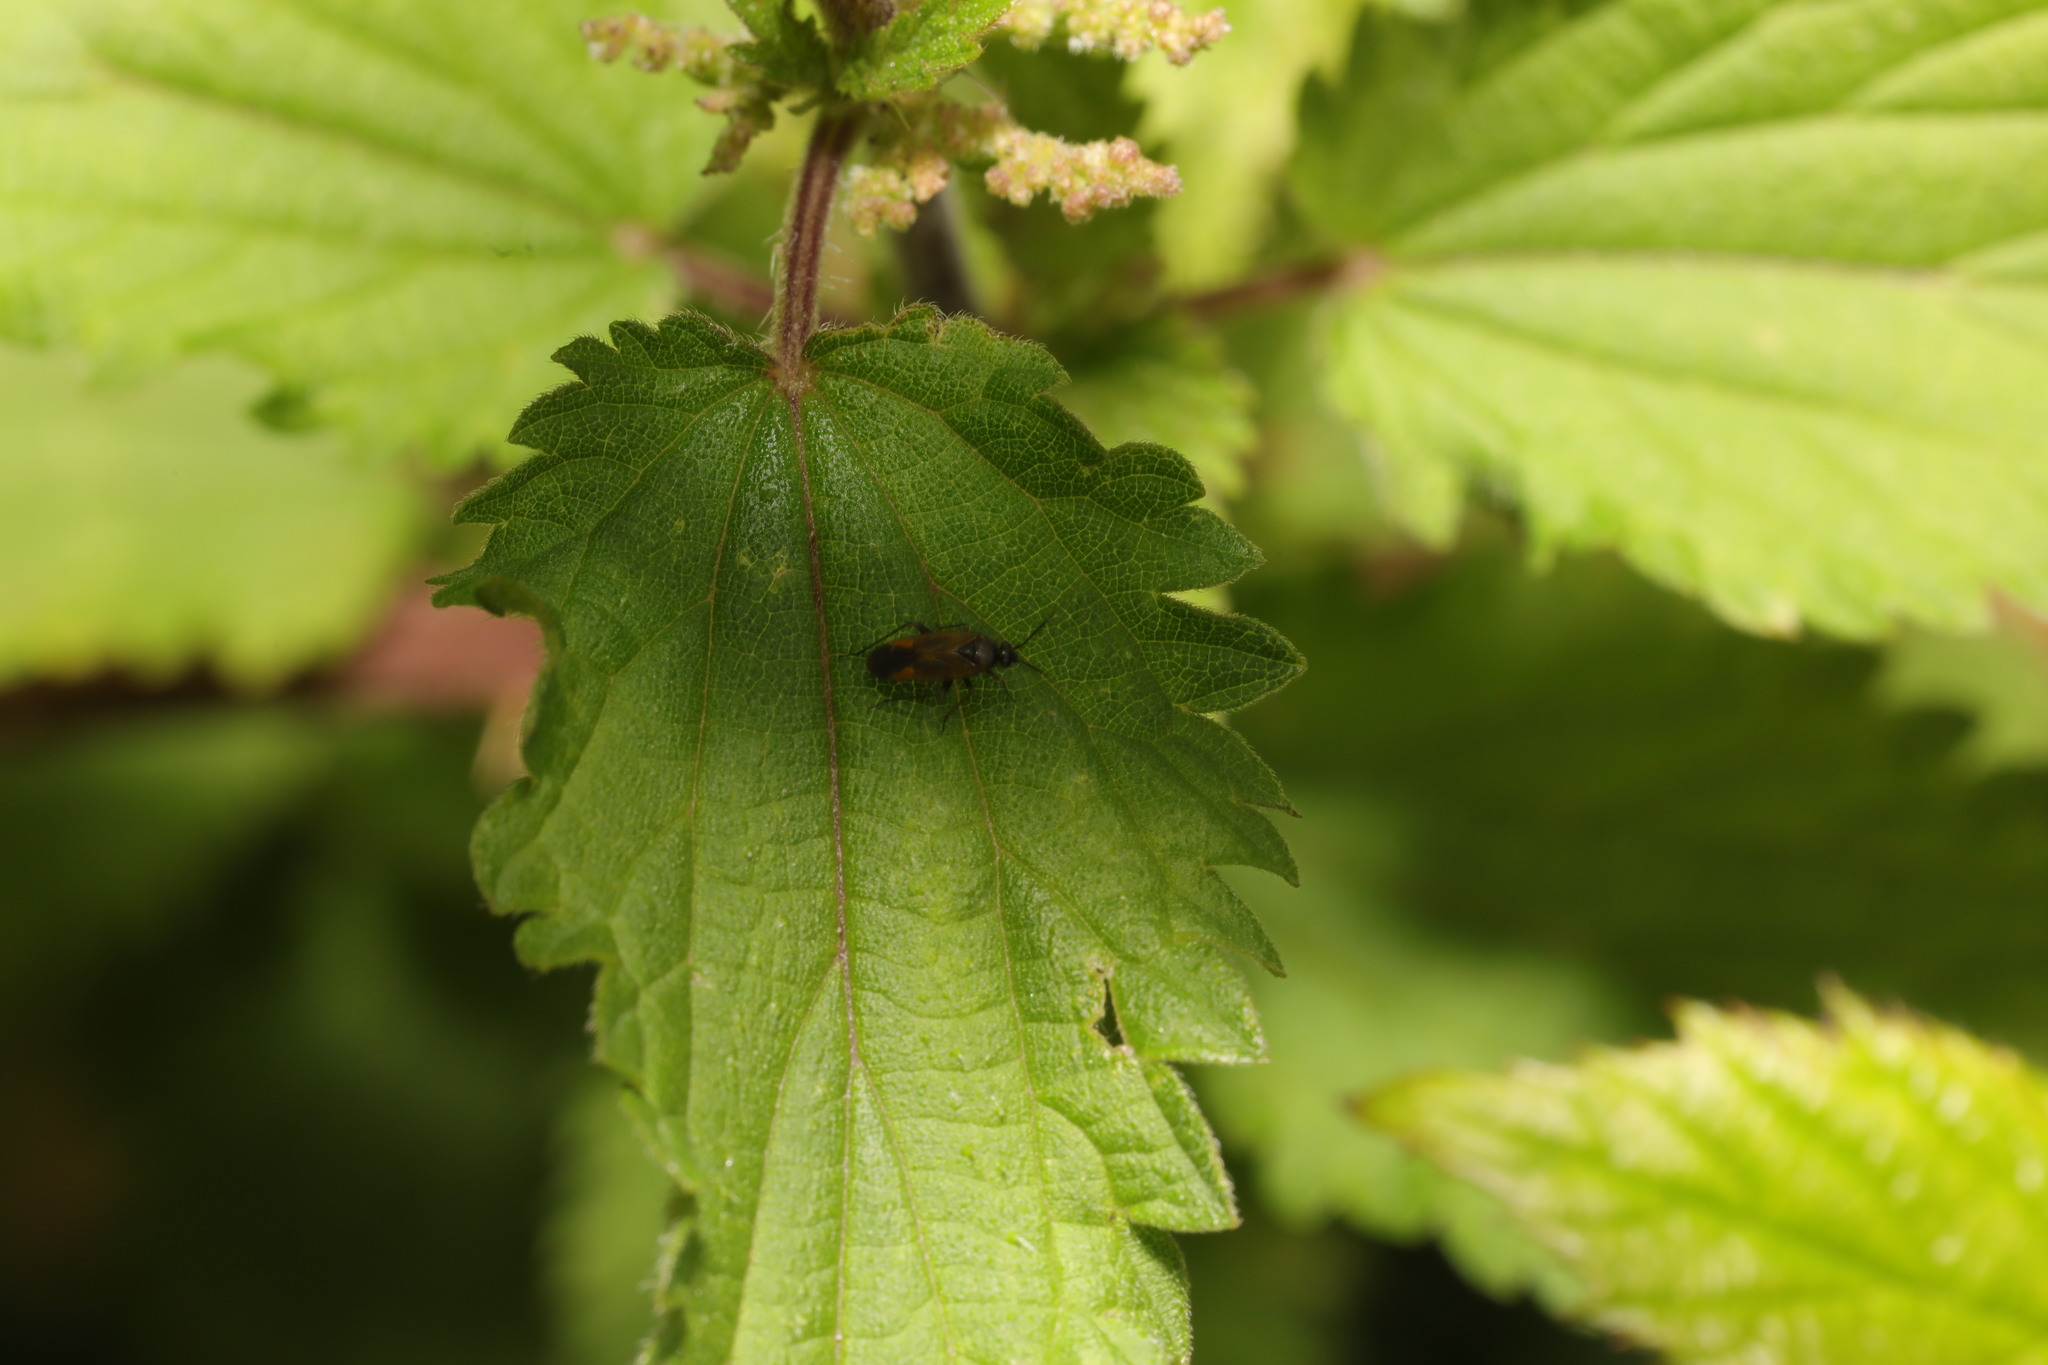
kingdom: Animalia
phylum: Arthropoda
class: Insecta
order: Hemiptera
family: Miridae
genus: Plagiognathus
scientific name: Plagiognathus arbustorum
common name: Plant bug
